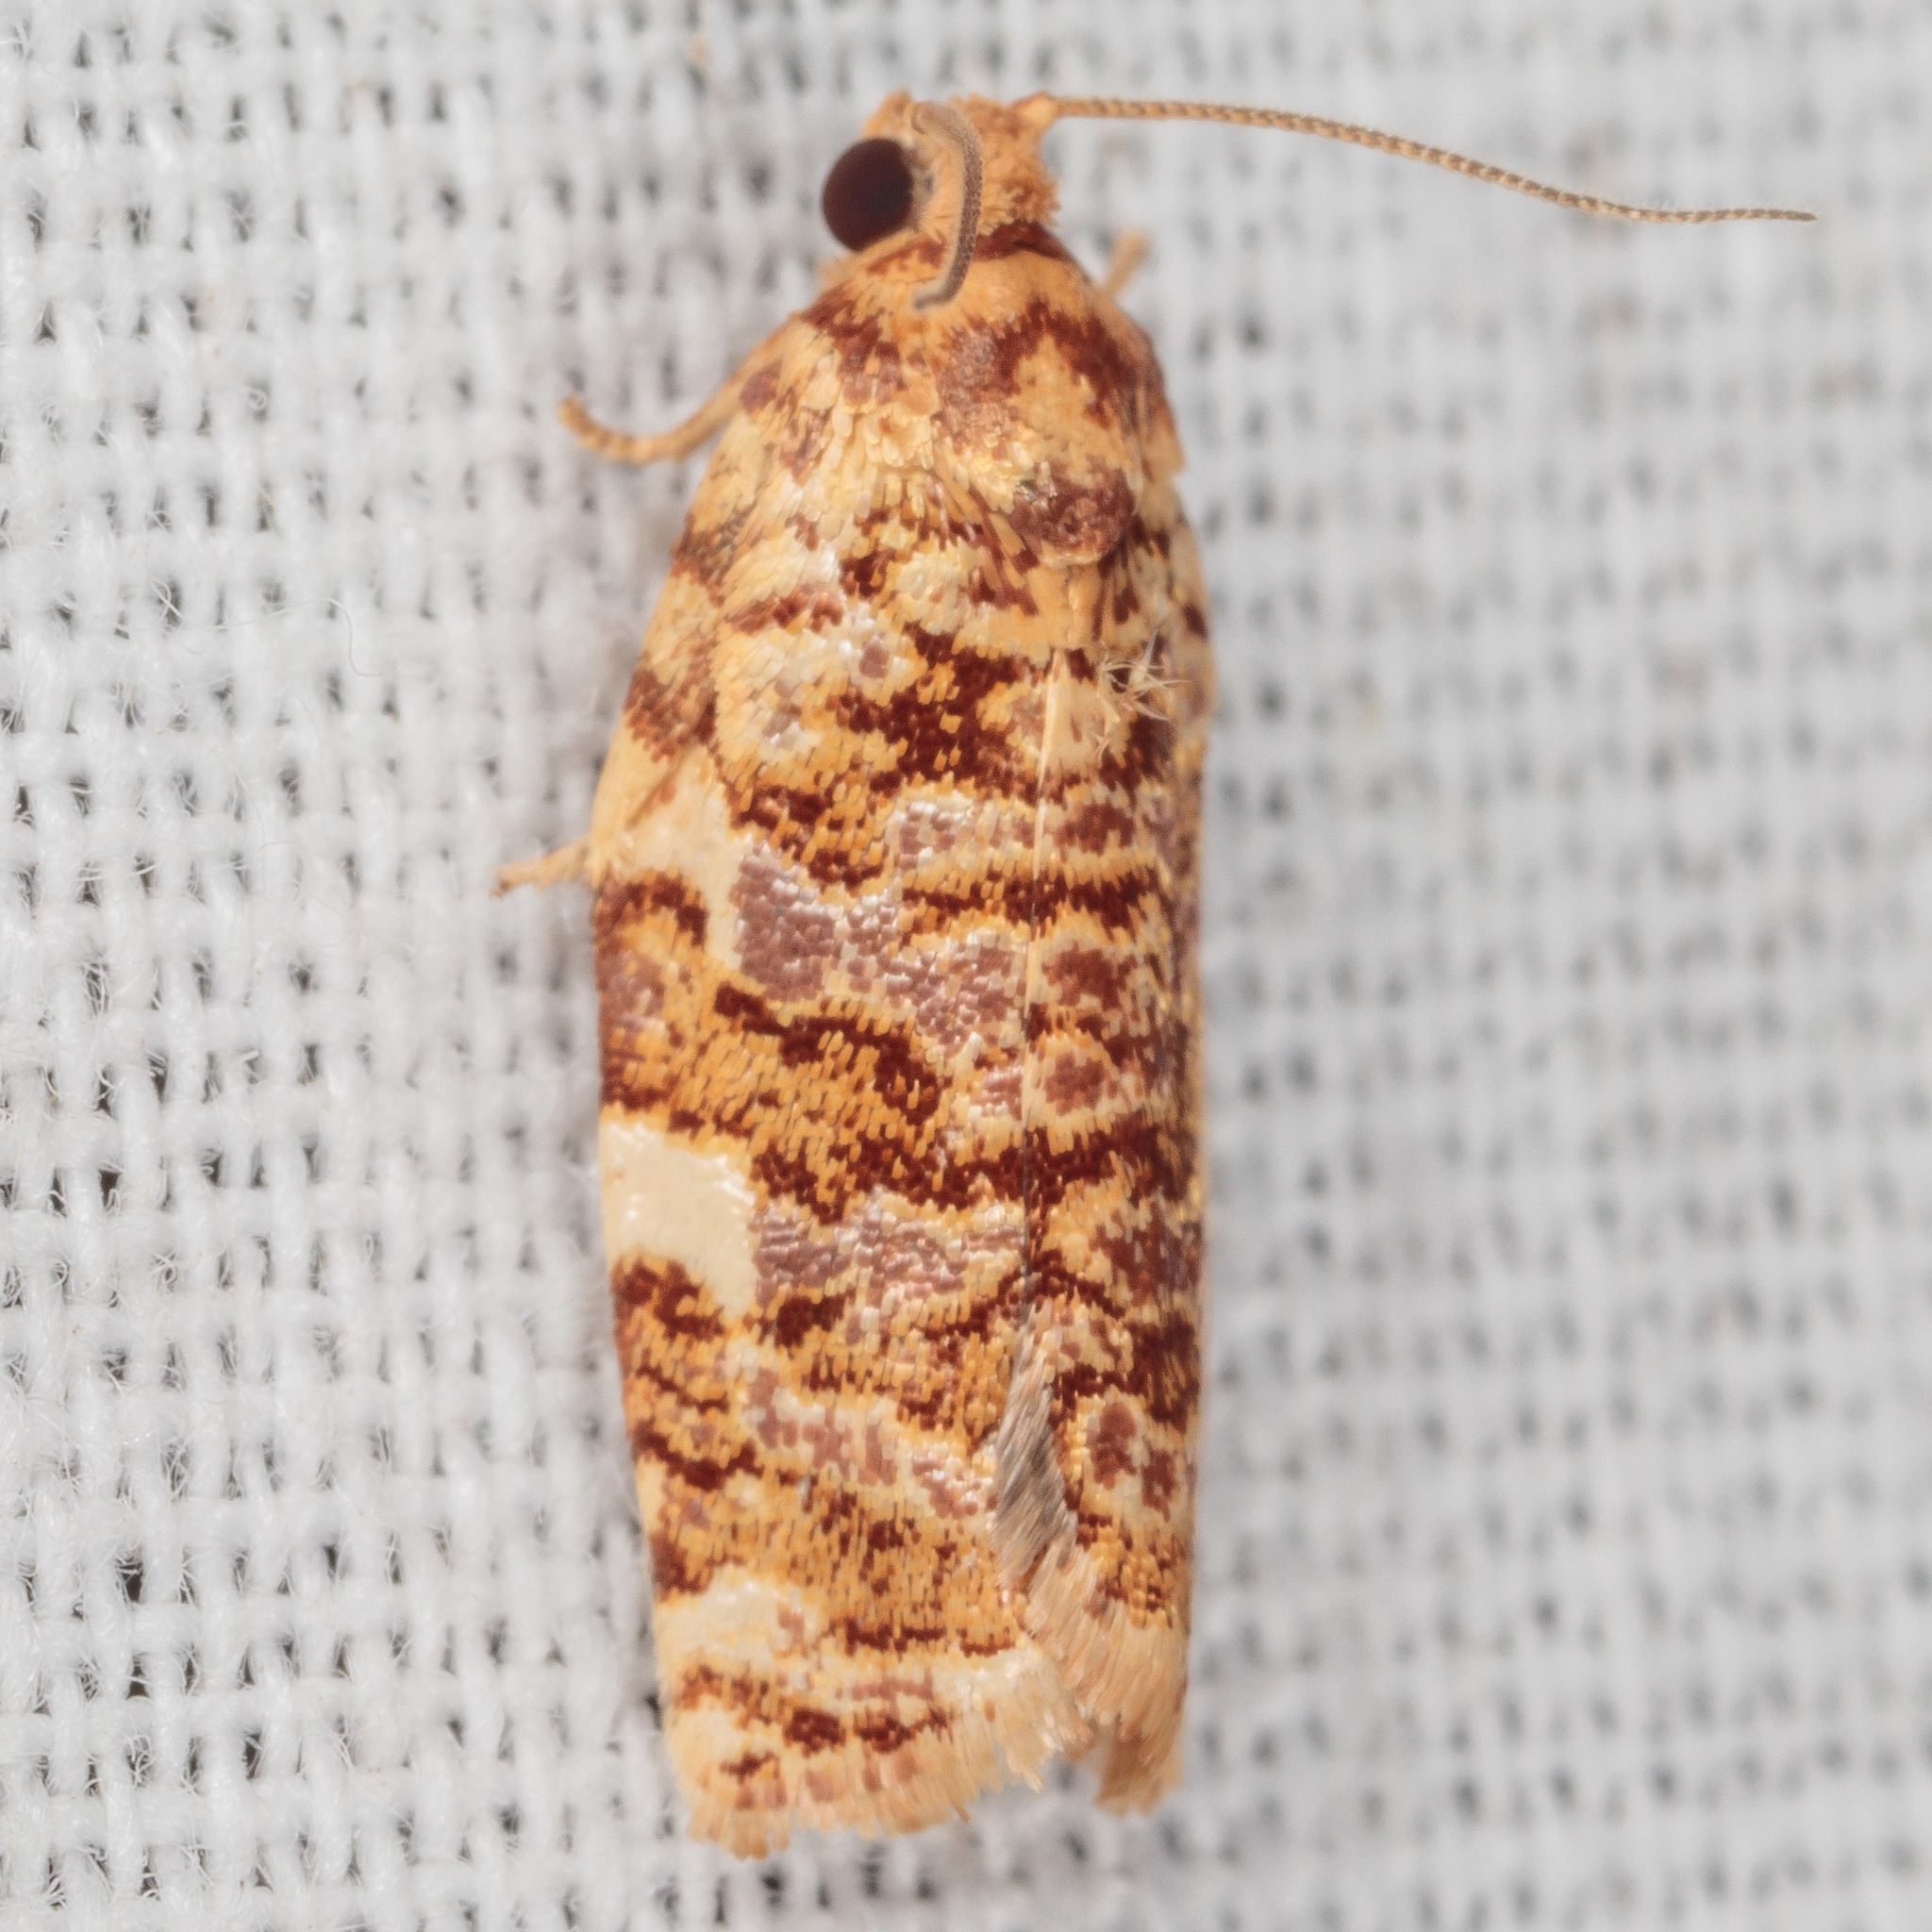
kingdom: Animalia
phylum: Arthropoda
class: Insecta
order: Lepidoptera
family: Tortricidae
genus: Archips
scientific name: Archips argyrospila
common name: Fruit-tree leafroller moth
